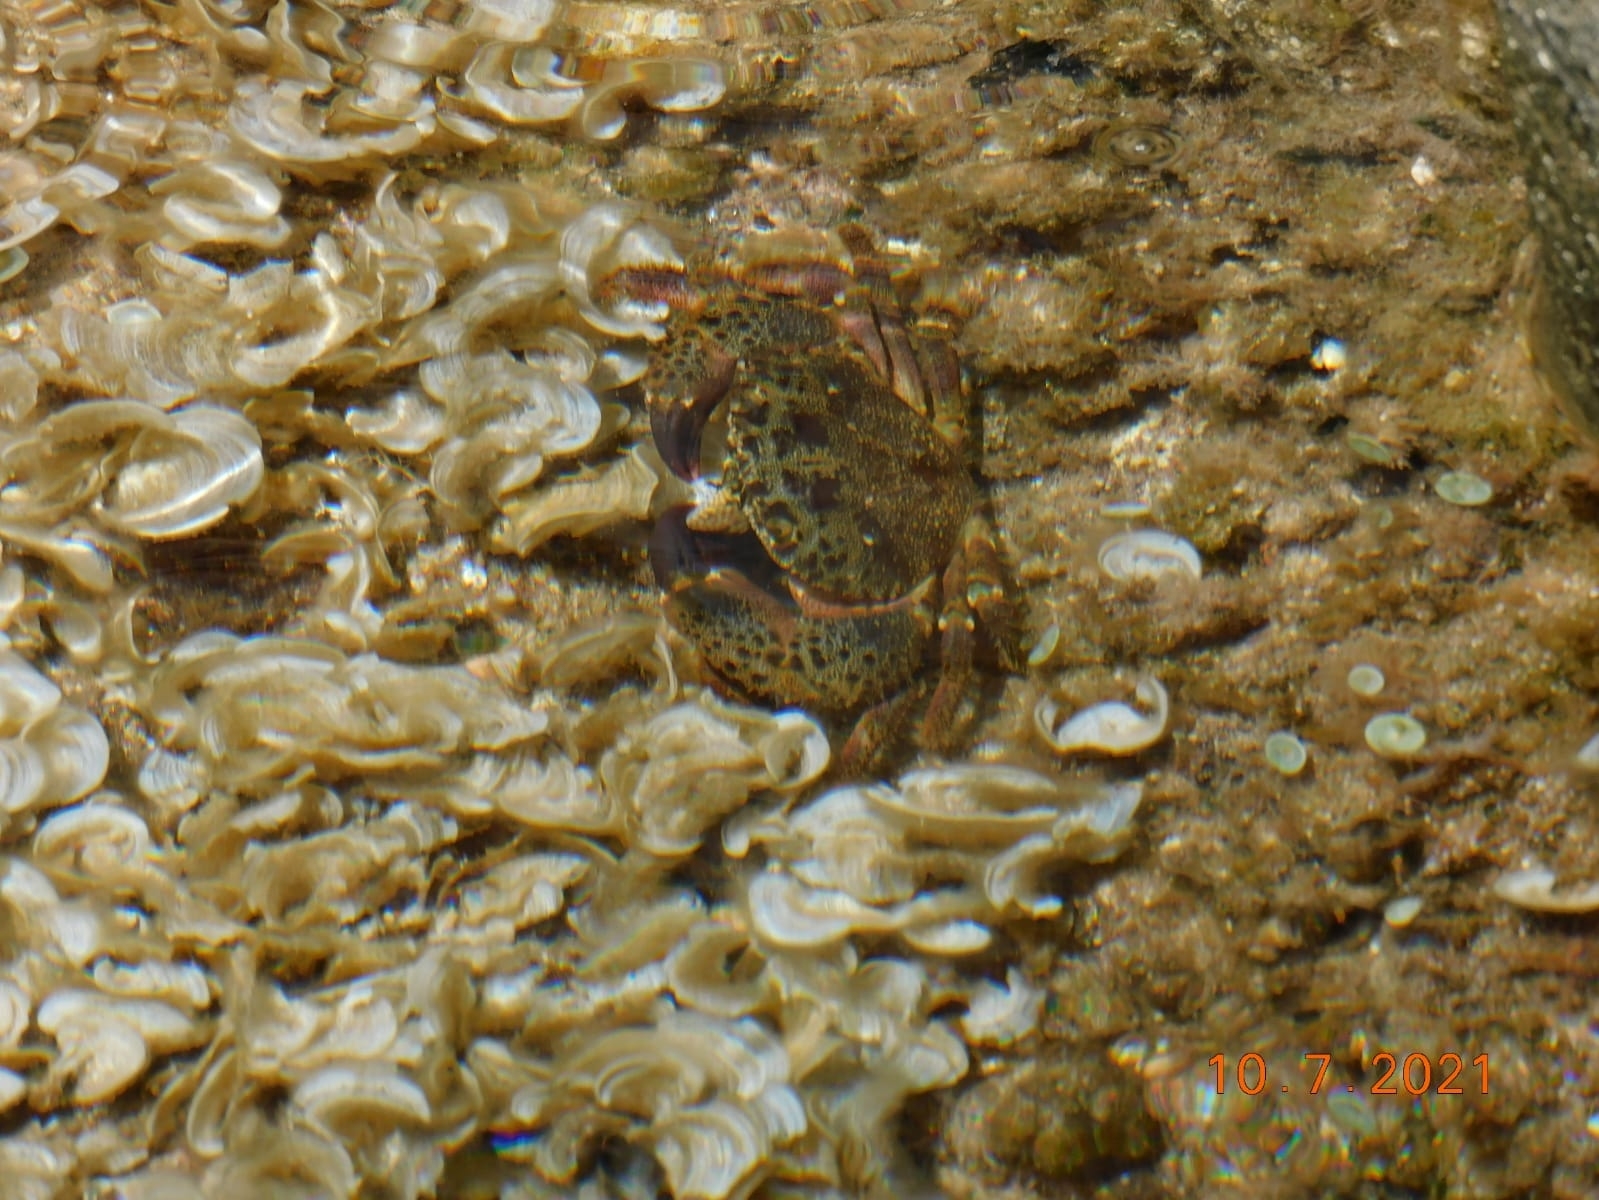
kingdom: Animalia
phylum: Arthropoda
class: Malacostraca
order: Decapoda
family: Eriphiidae
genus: Eriphia
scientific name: Eriphia verrucosa
